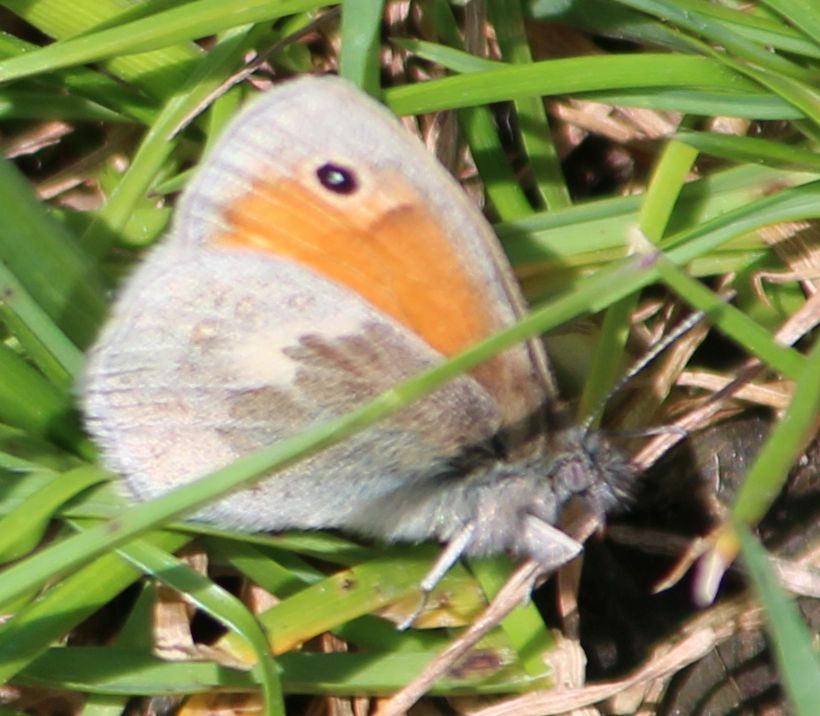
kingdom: Animalia
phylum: Arthropoda
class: Insecta
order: Lepidoptera
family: Nymphalidae
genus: Coenonympha
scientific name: Coenonympha pamphilus
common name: Small heath
